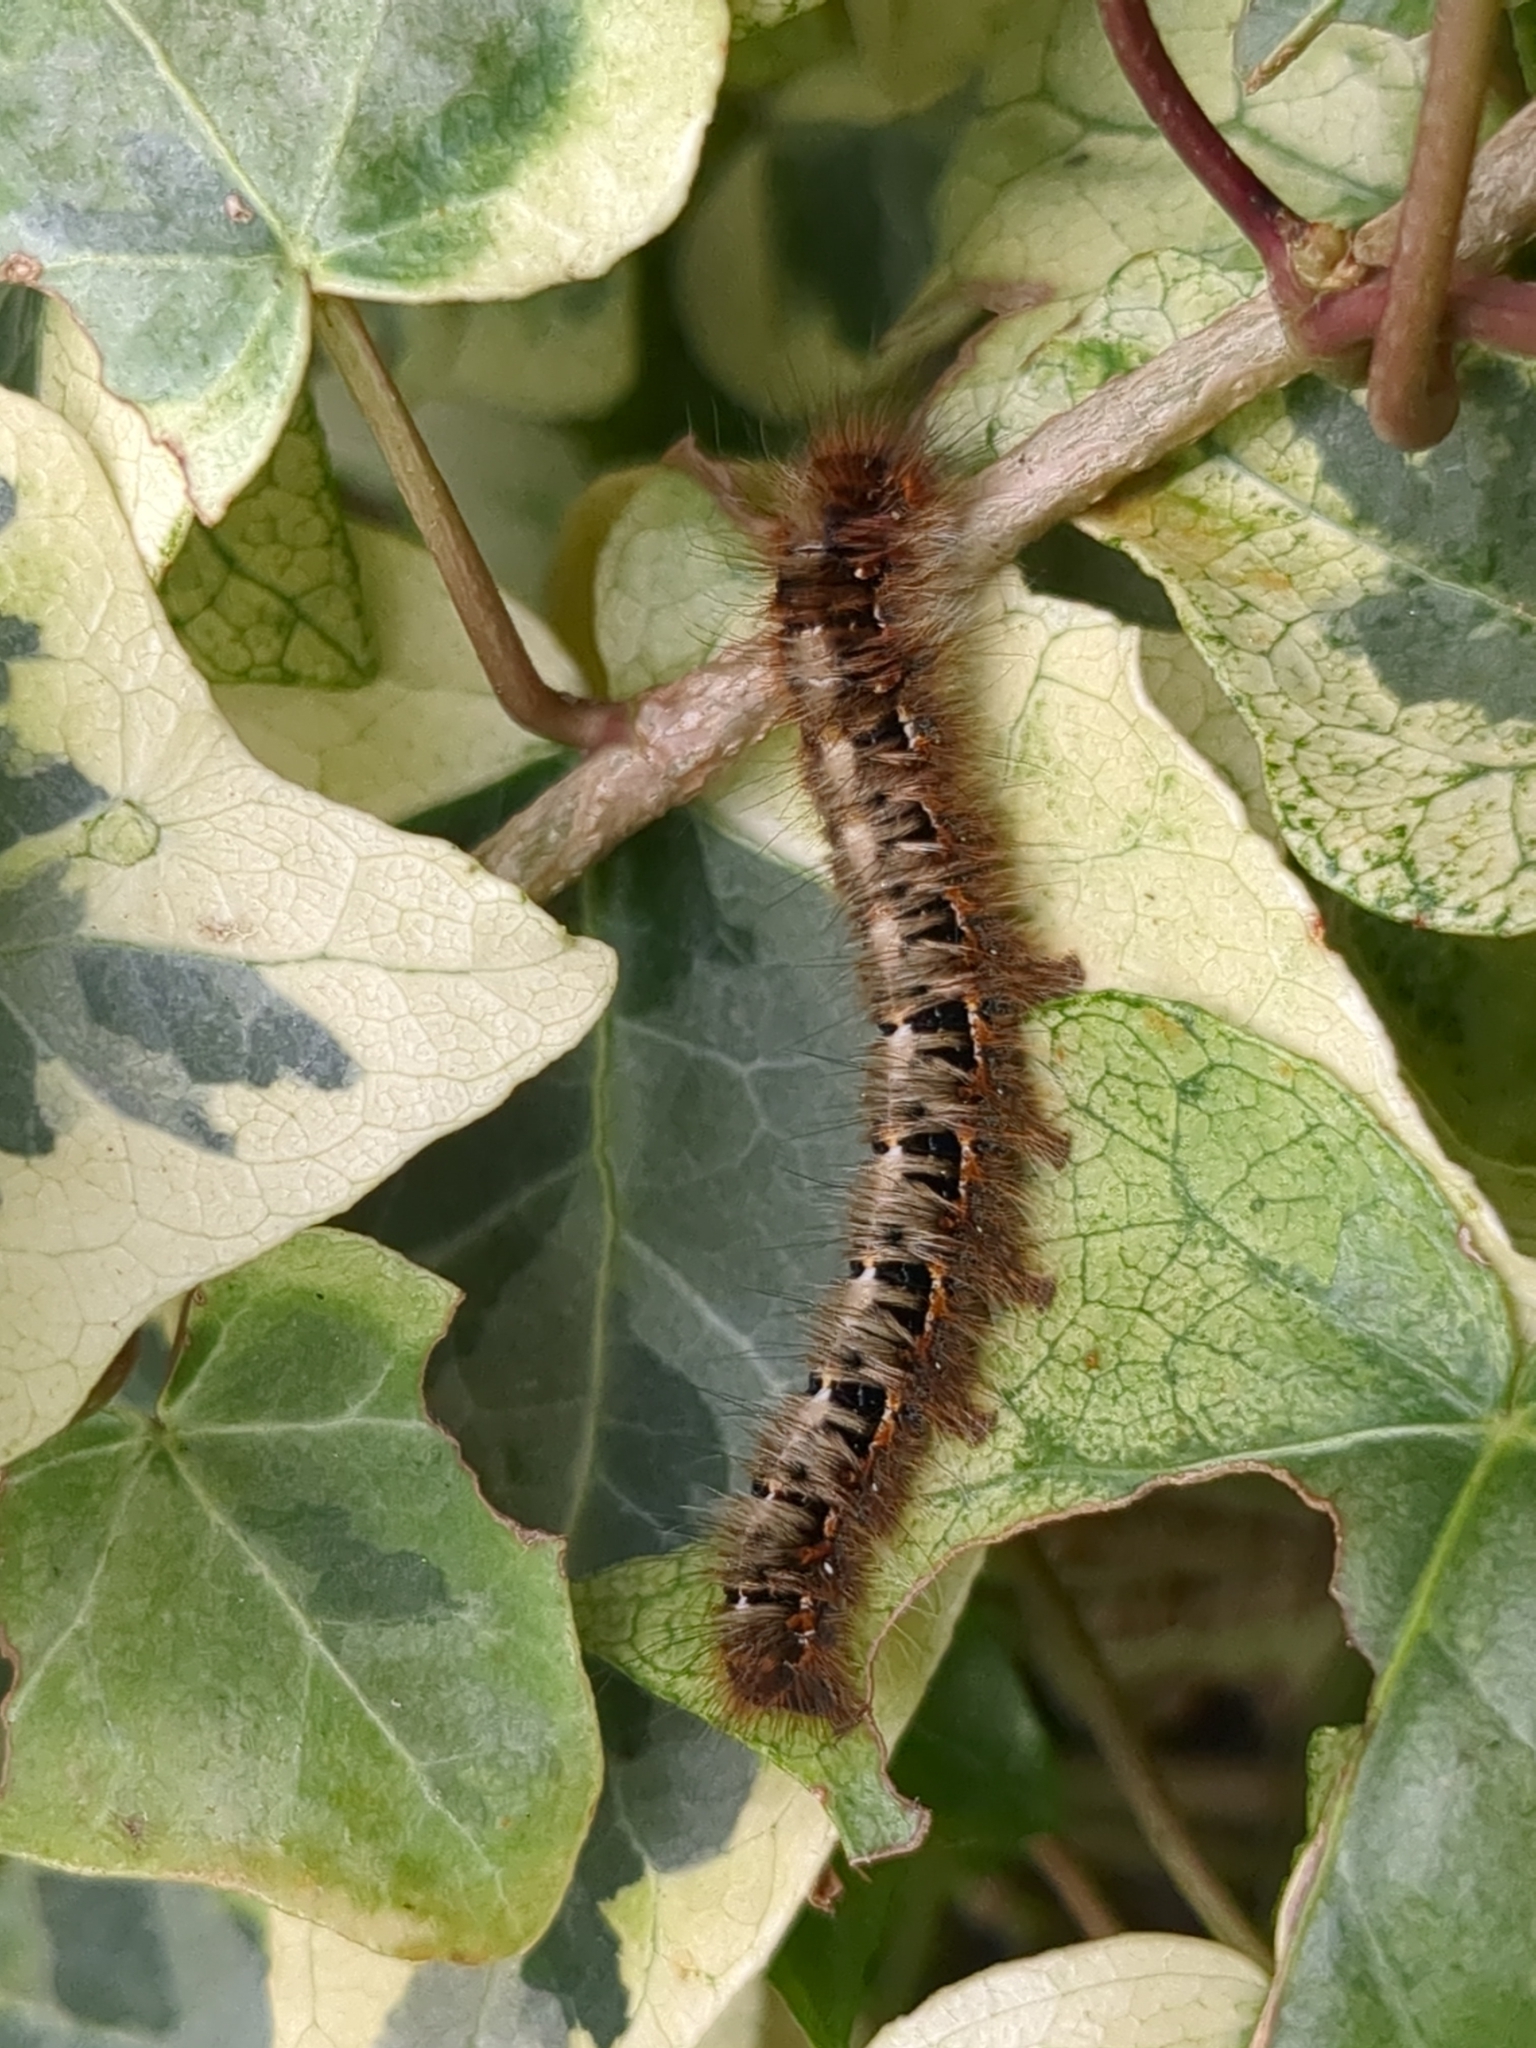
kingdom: Animalia
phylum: Arthropoda
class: Insecta
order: Lepidoptera
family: Lasiocampidae
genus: Lasiocampa
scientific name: Lasiocampa quercus
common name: Oak eggar
